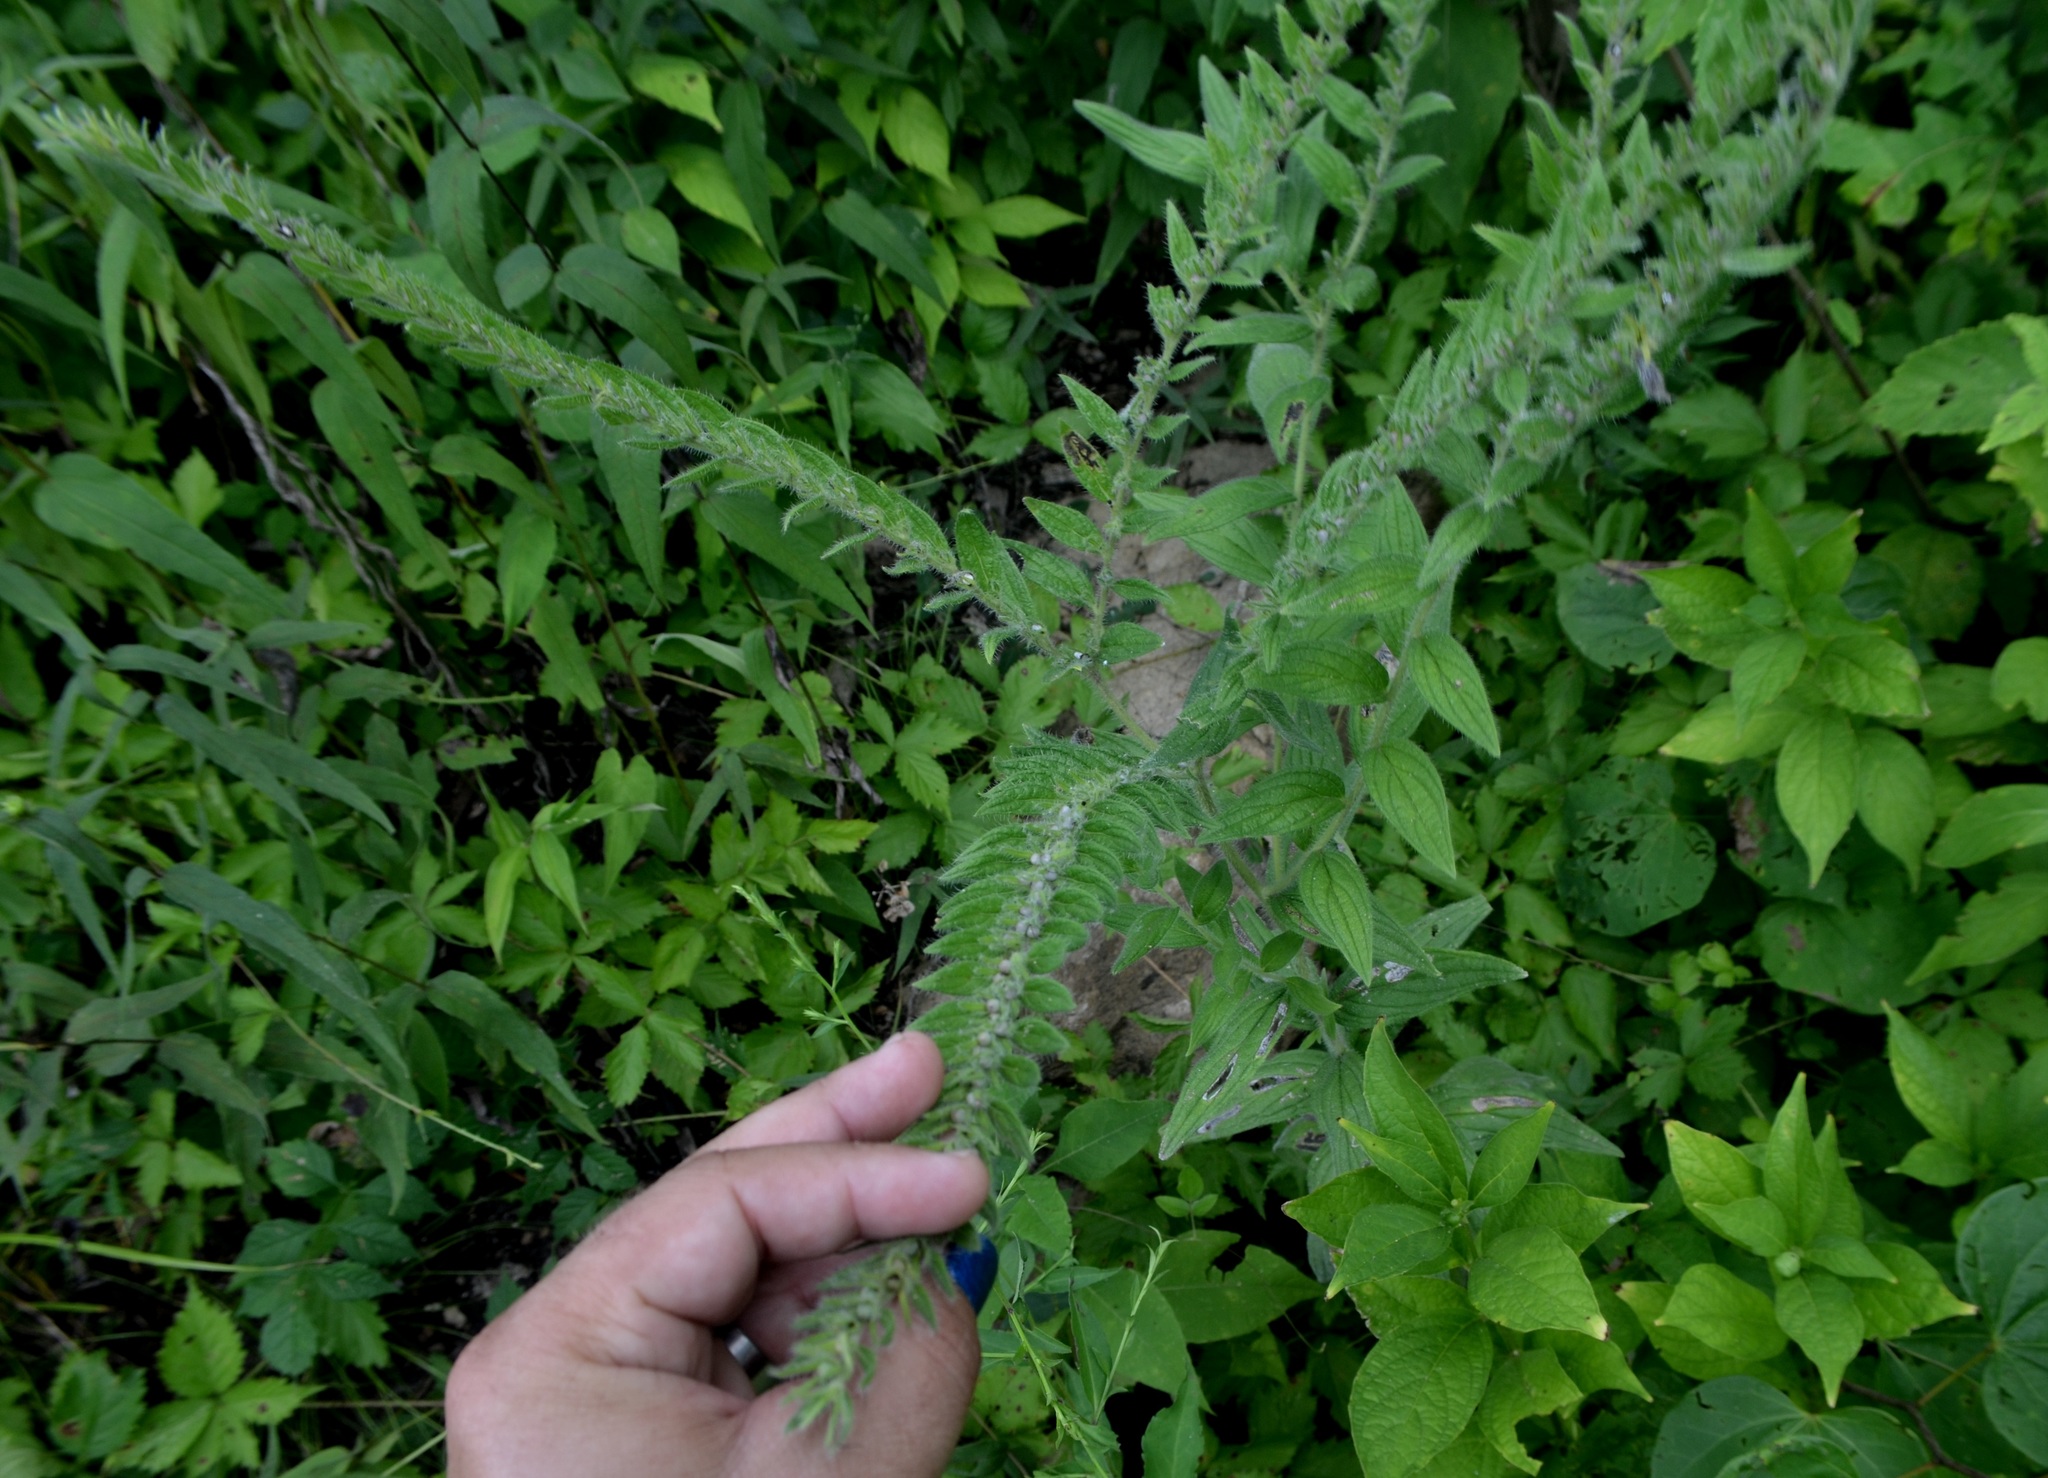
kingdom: Plantae
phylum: Tracheophyta
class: Magnoliopsida
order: Boraginales
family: Boraginaceae
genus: Lithospermum
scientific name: Lithospermum parviflorum
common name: Hairy false gromwell
